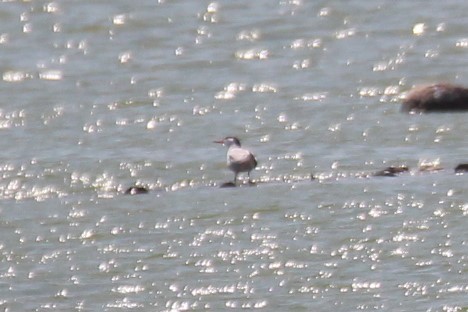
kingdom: Animalia
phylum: Chordata
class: Aves
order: Charadriiformes
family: Laridae
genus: Sterna
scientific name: Sterna hirundo
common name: Common tern
